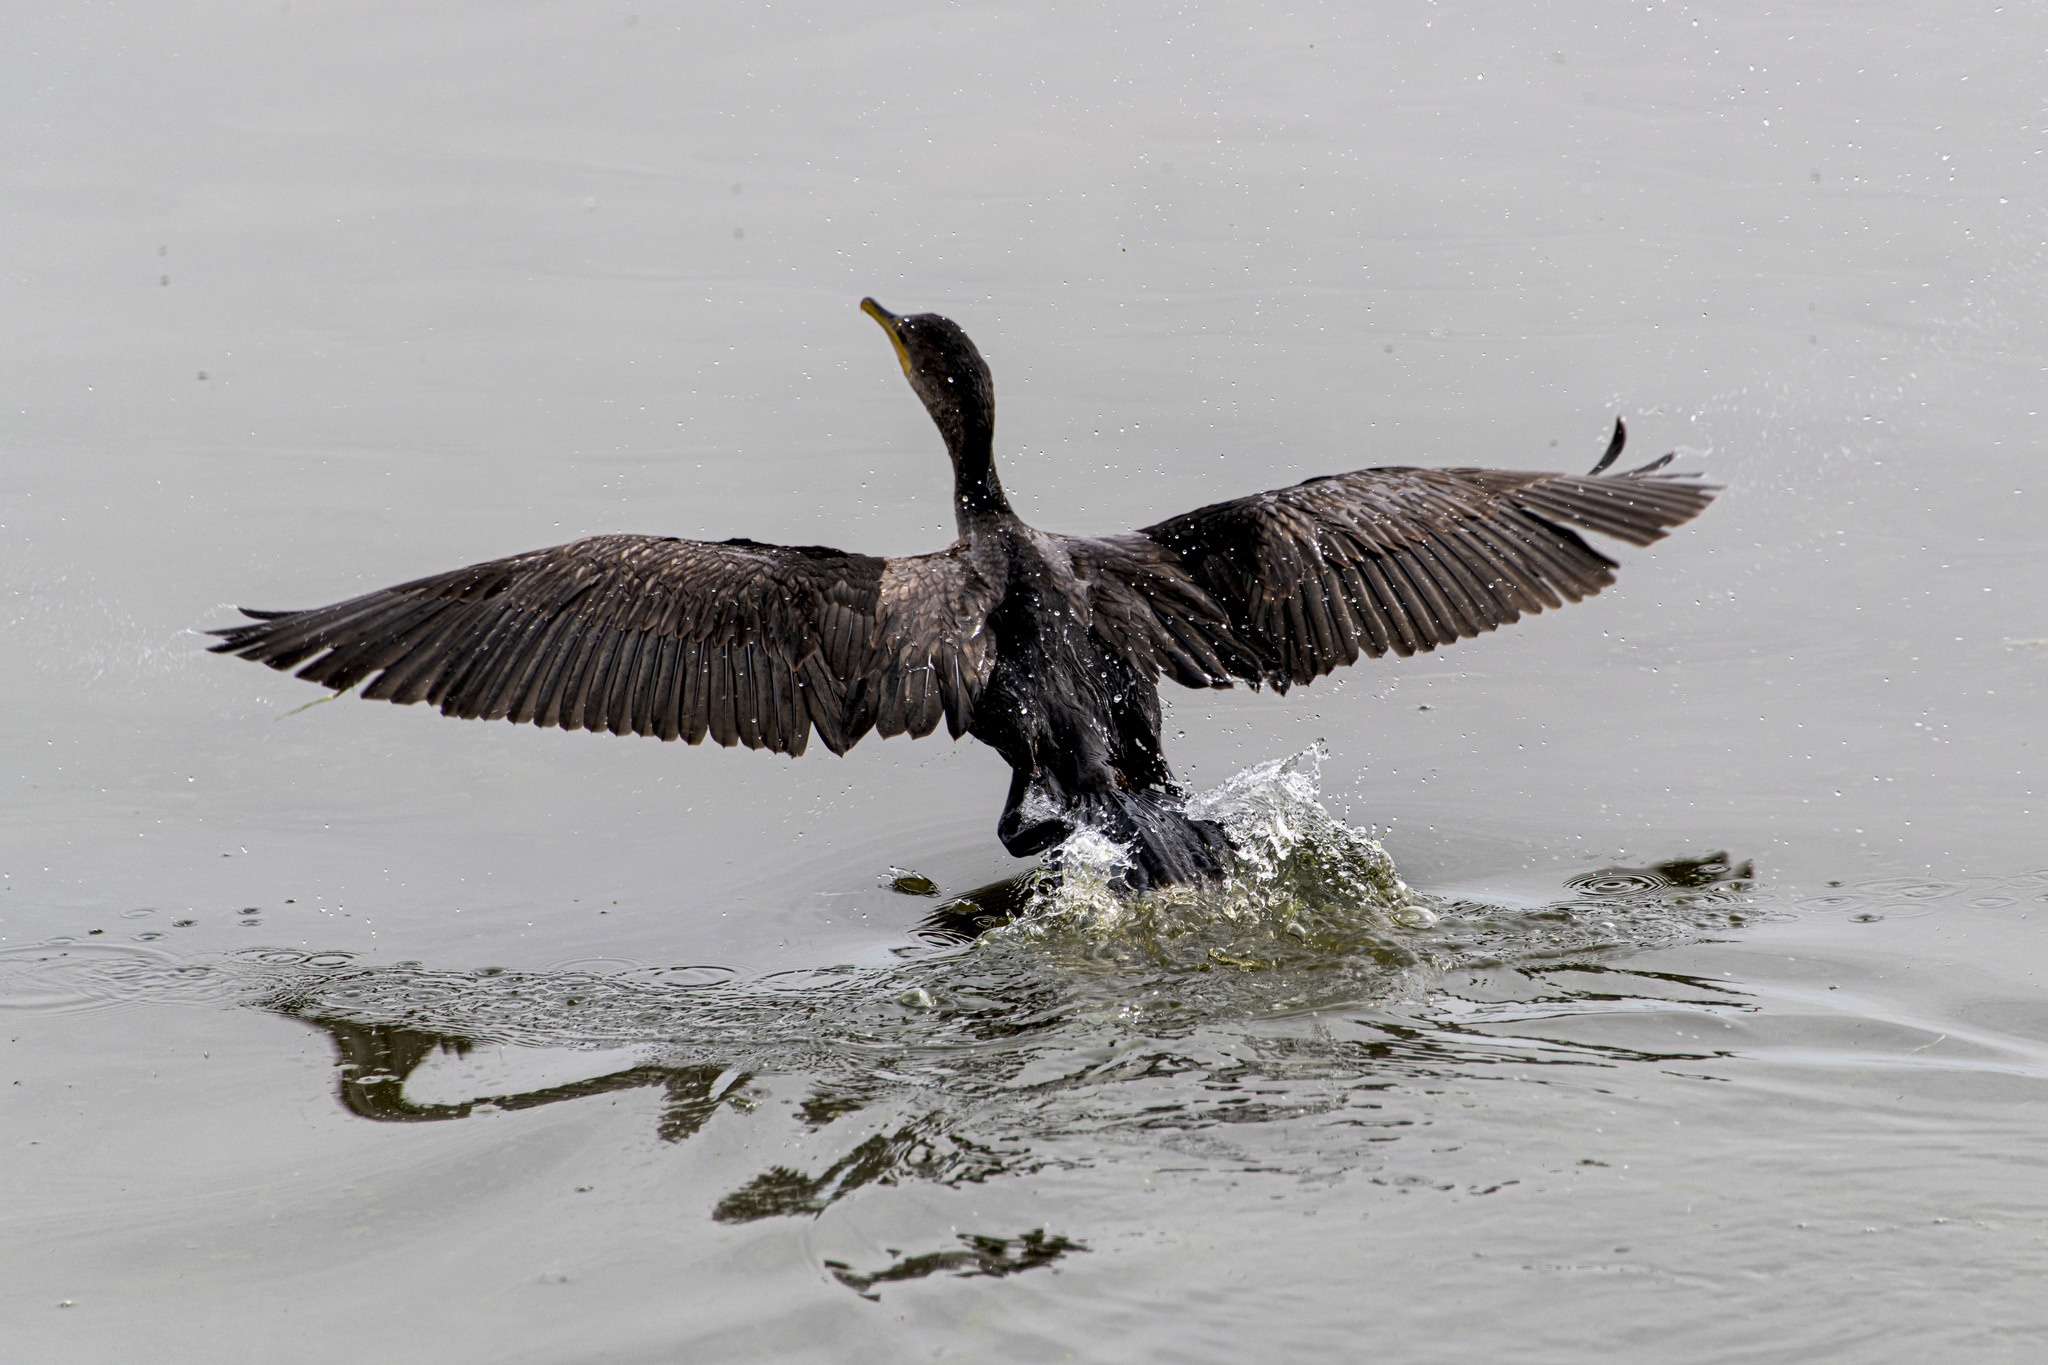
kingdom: Animalia
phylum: Chordata
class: Aves
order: Suliformes
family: Phalacrocoracidae
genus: Phalacrocorax
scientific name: Phalacrocorax auritus
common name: Double-crested cormorant
